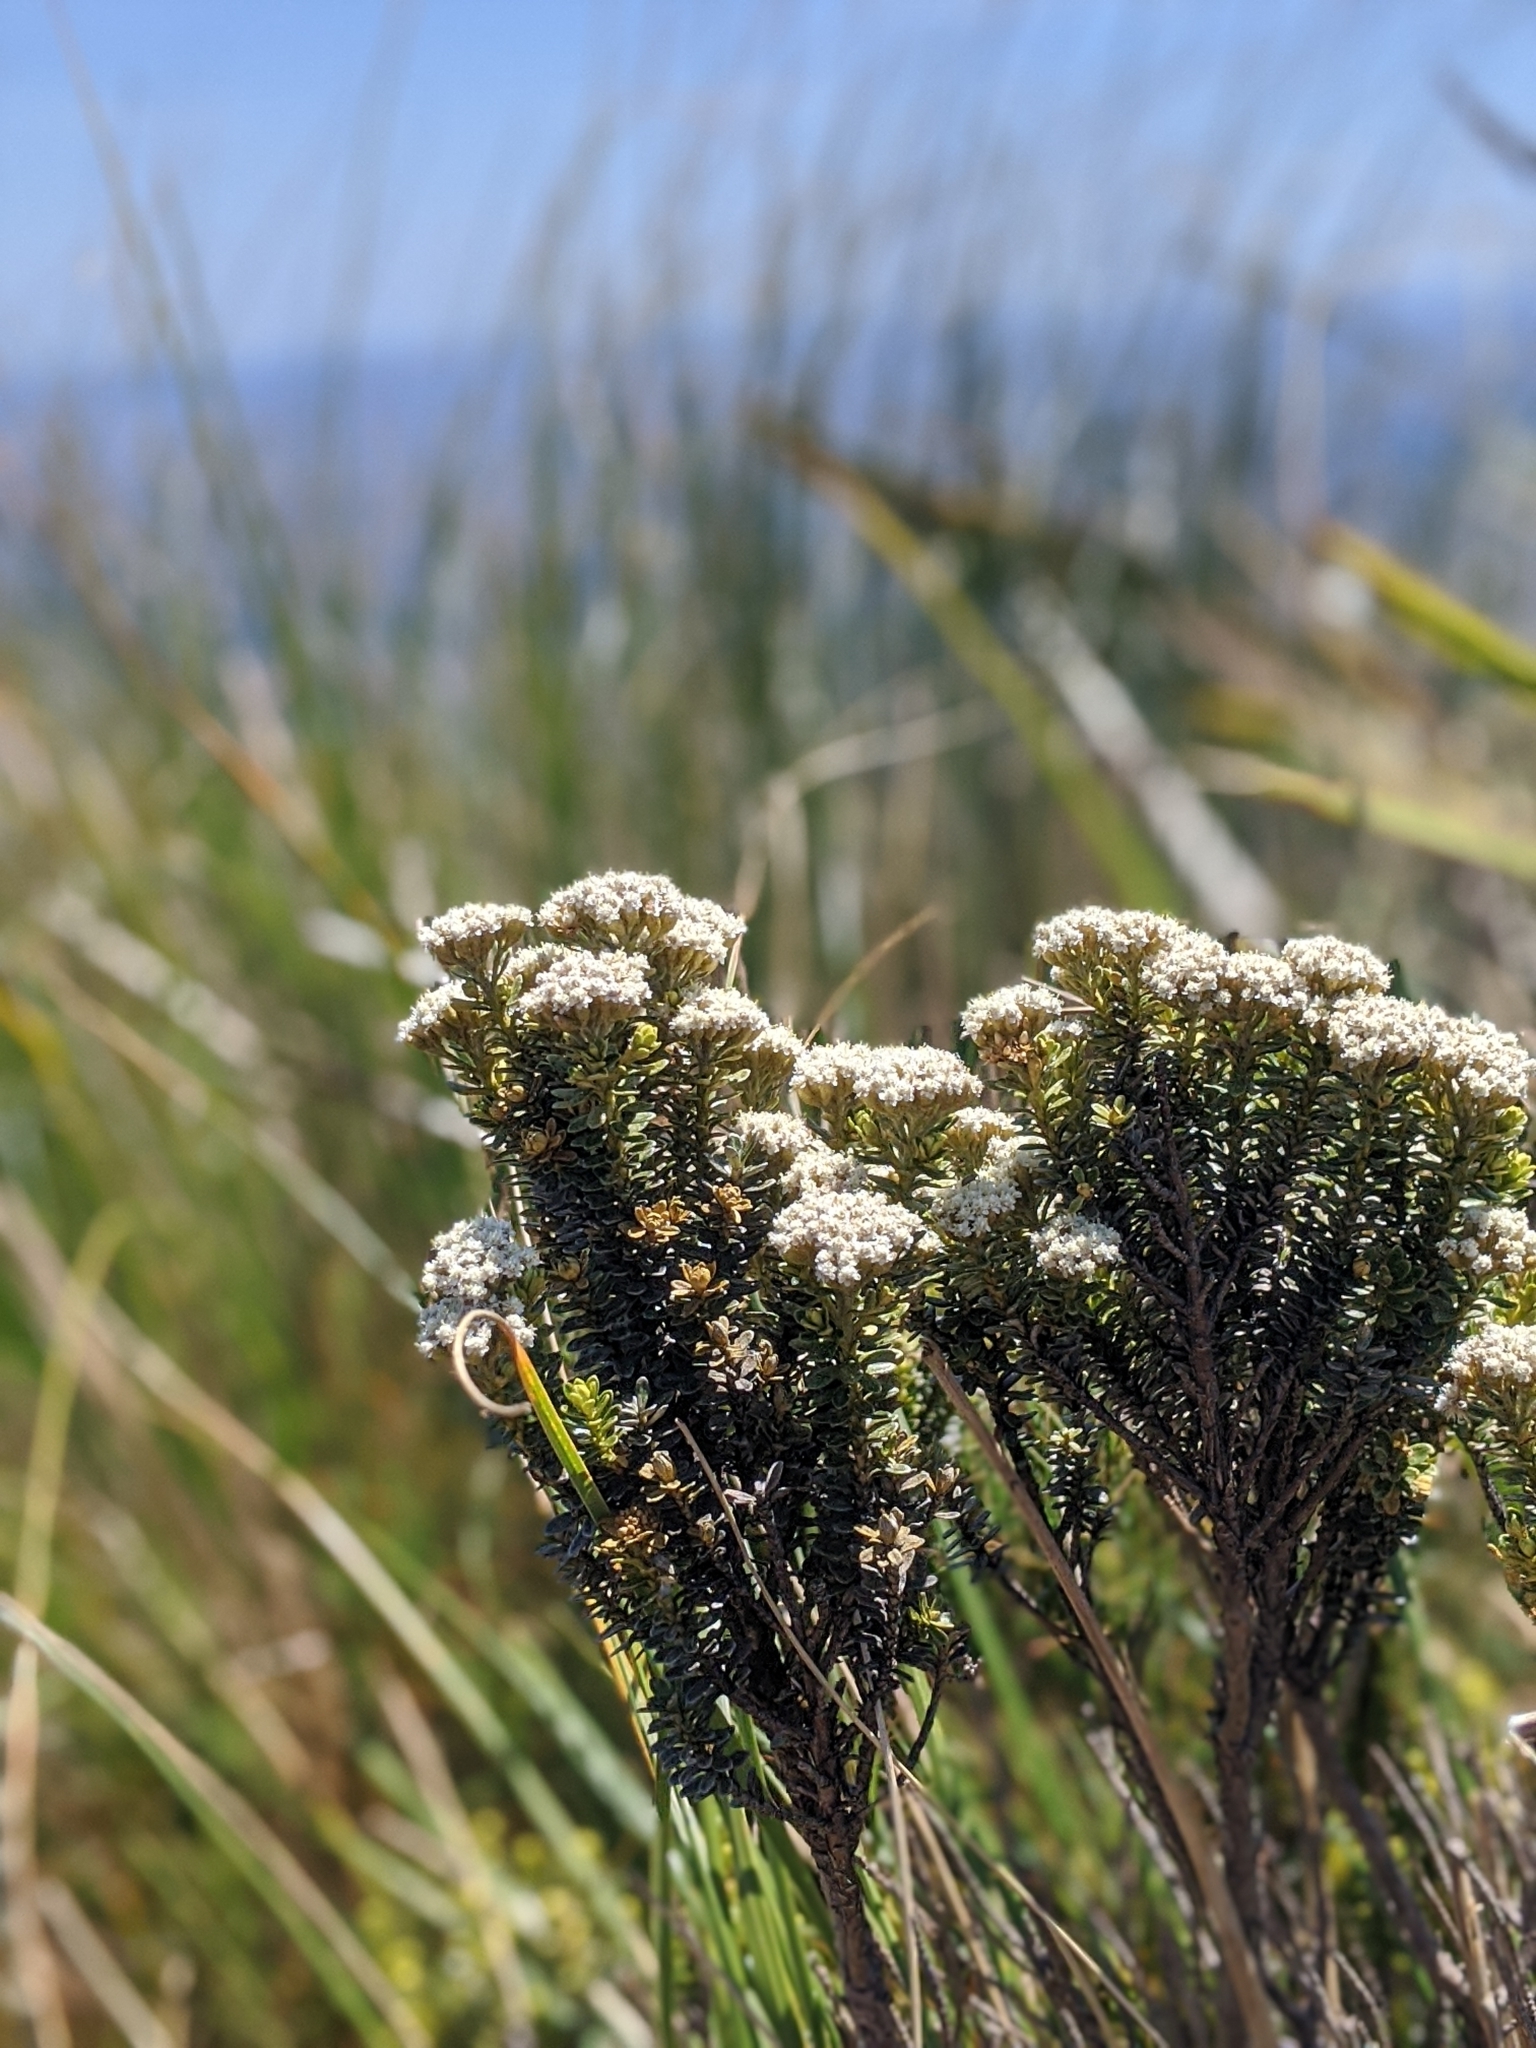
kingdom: Plantae
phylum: Tracheophyta
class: Magnoliopsida
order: Asterales
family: Asteraceae
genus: Ozothamnus
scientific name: Ozothamnus leptophyllus
